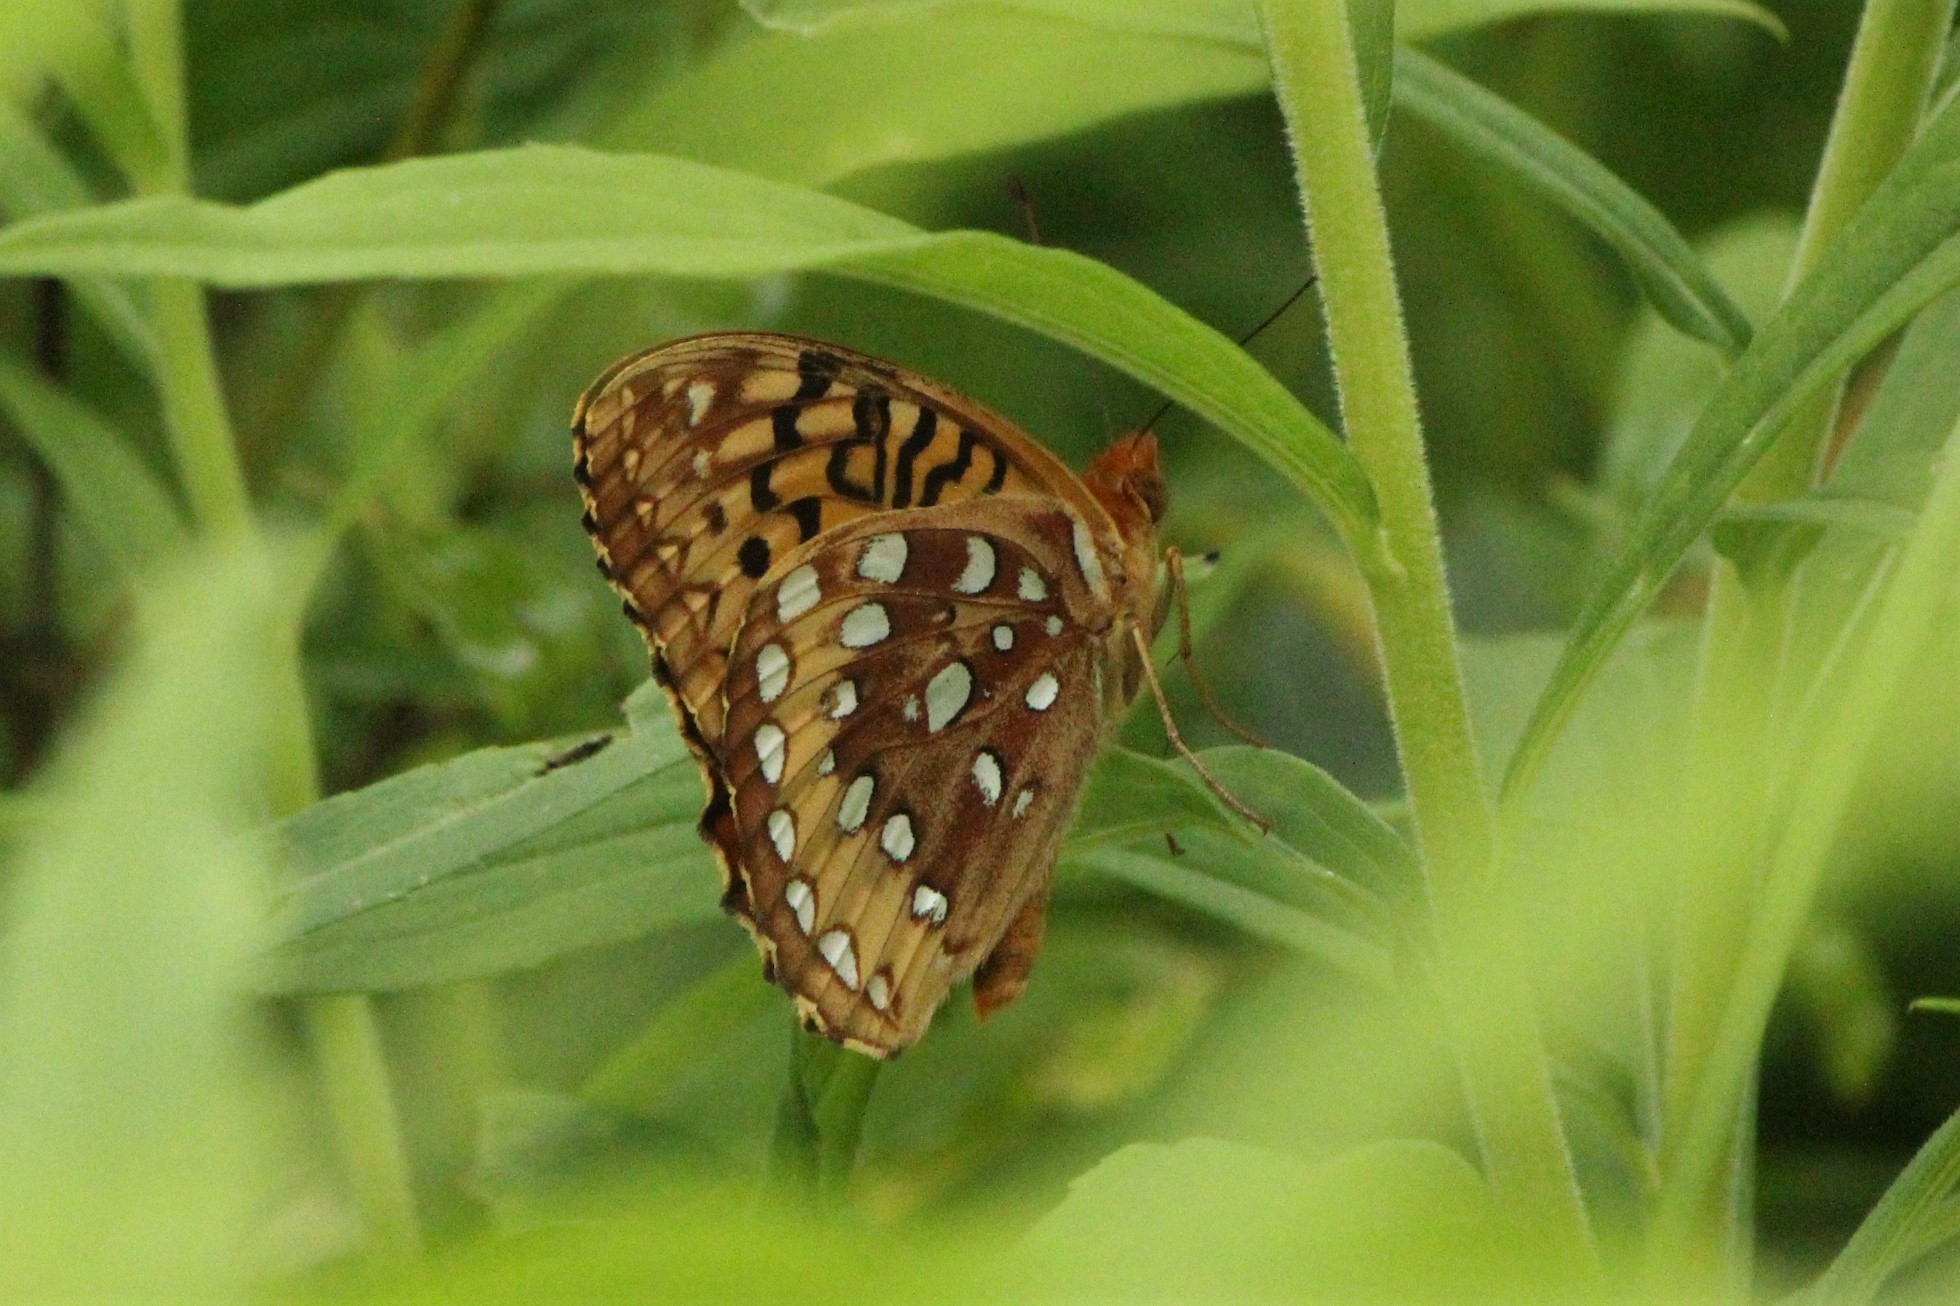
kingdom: Animalia
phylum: Arthropoda
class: Insecta
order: Lepidoptera
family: Nymphalidae
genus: Speyeria
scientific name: Speyeria cybele
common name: Great spangled fritillary
